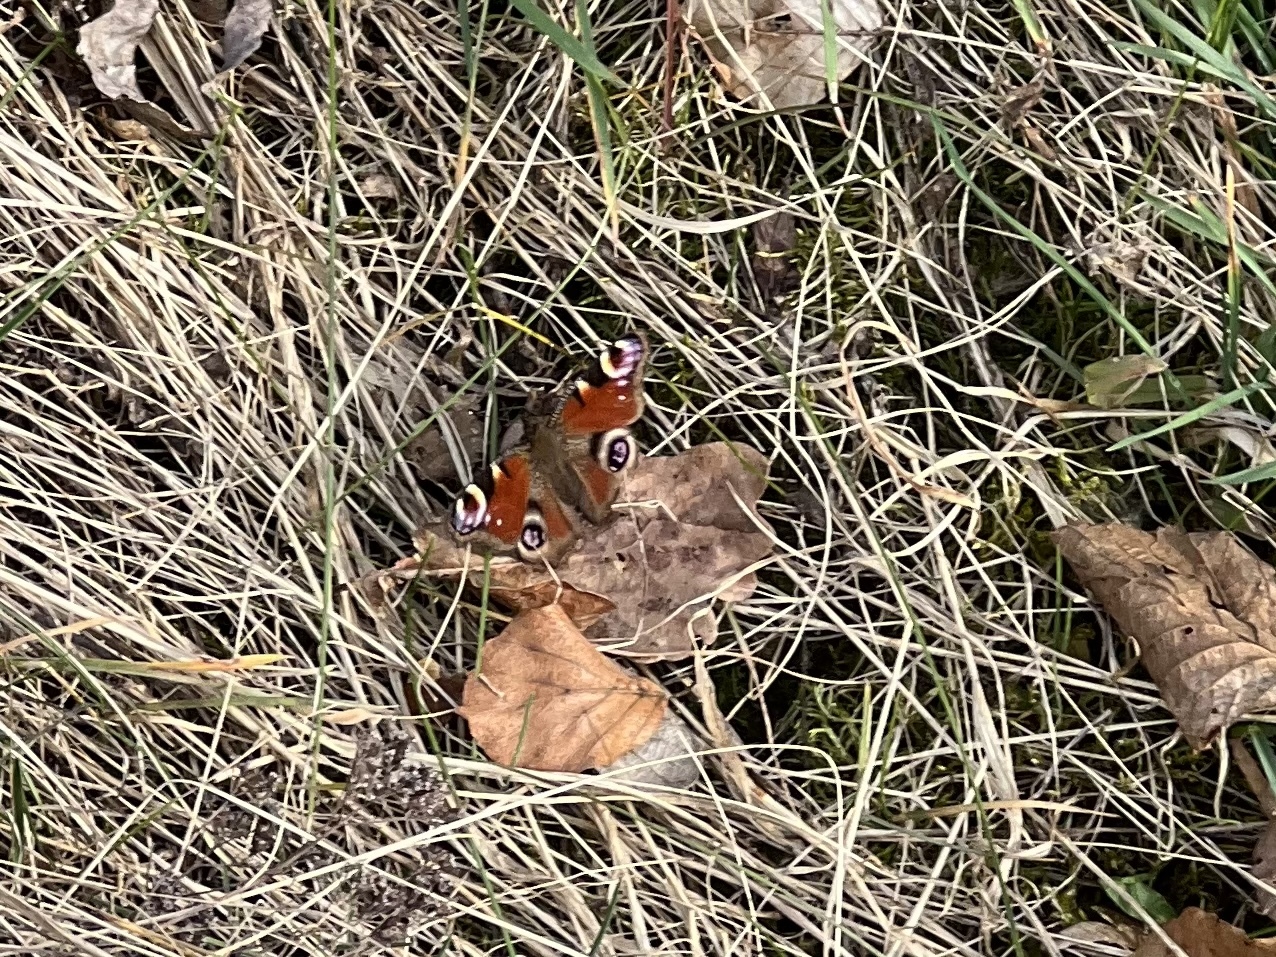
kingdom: Animalia
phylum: Arthropoda
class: Insecta
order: Lepidoptera
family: Nymphalidae
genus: Aglais
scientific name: Aglais io
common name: Peacock
